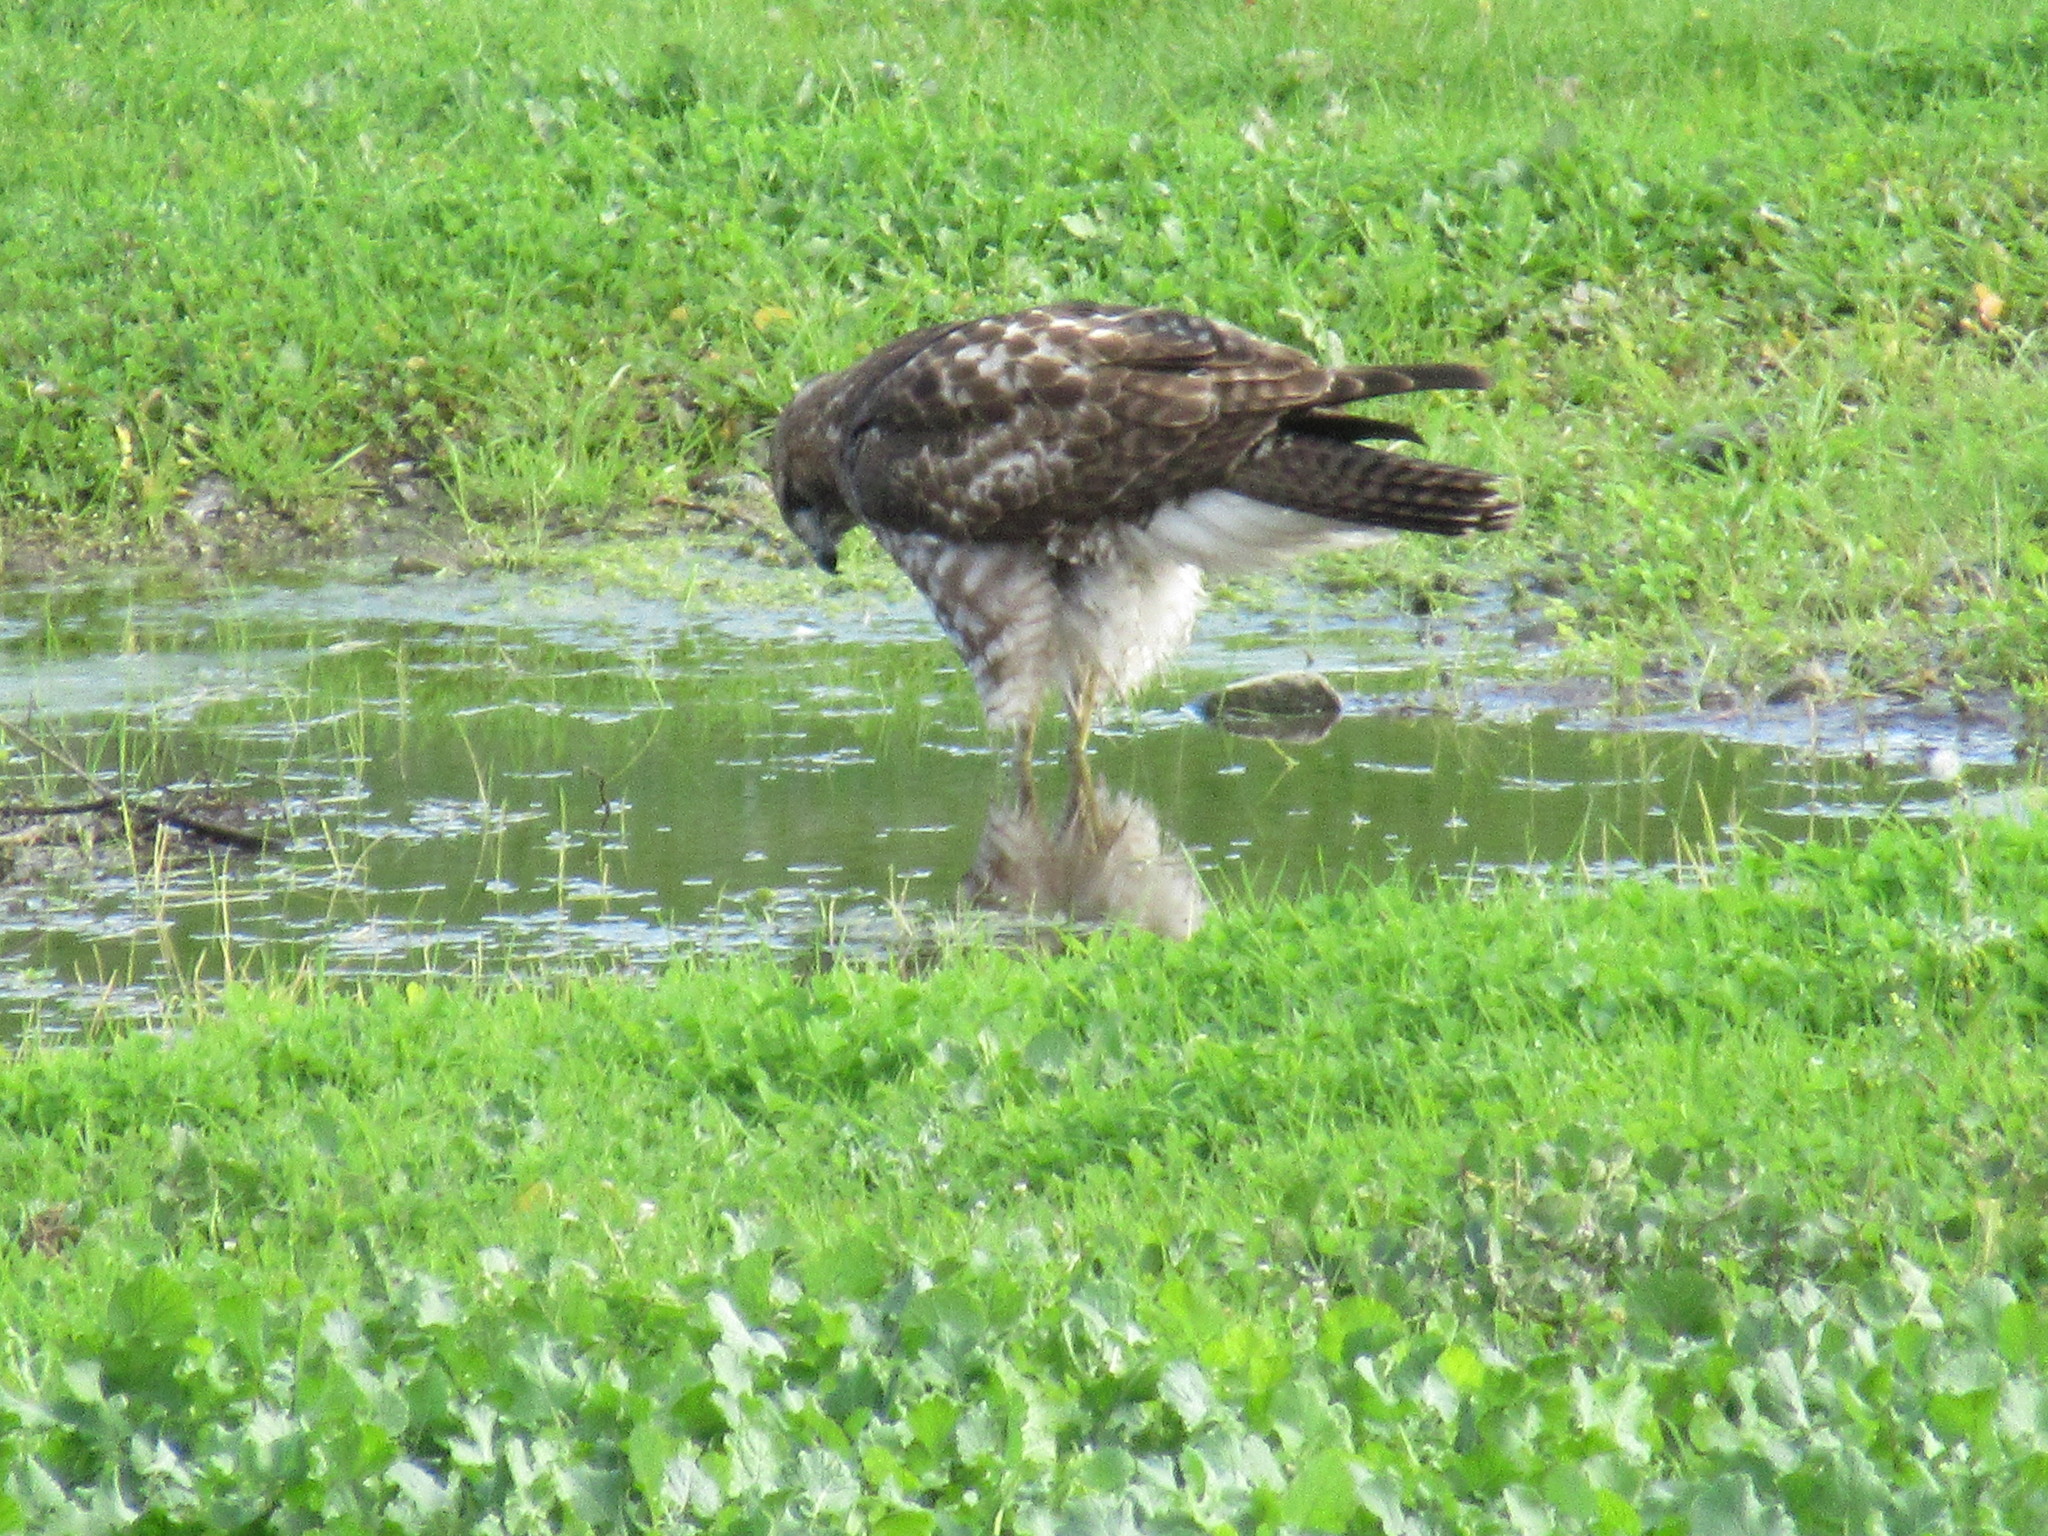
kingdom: Animalia
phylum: Chordata
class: Aves
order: Accipitriformes
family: Accipitridae
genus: Buteo
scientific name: Buteo jamaicensis
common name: Red-tailed hawk
